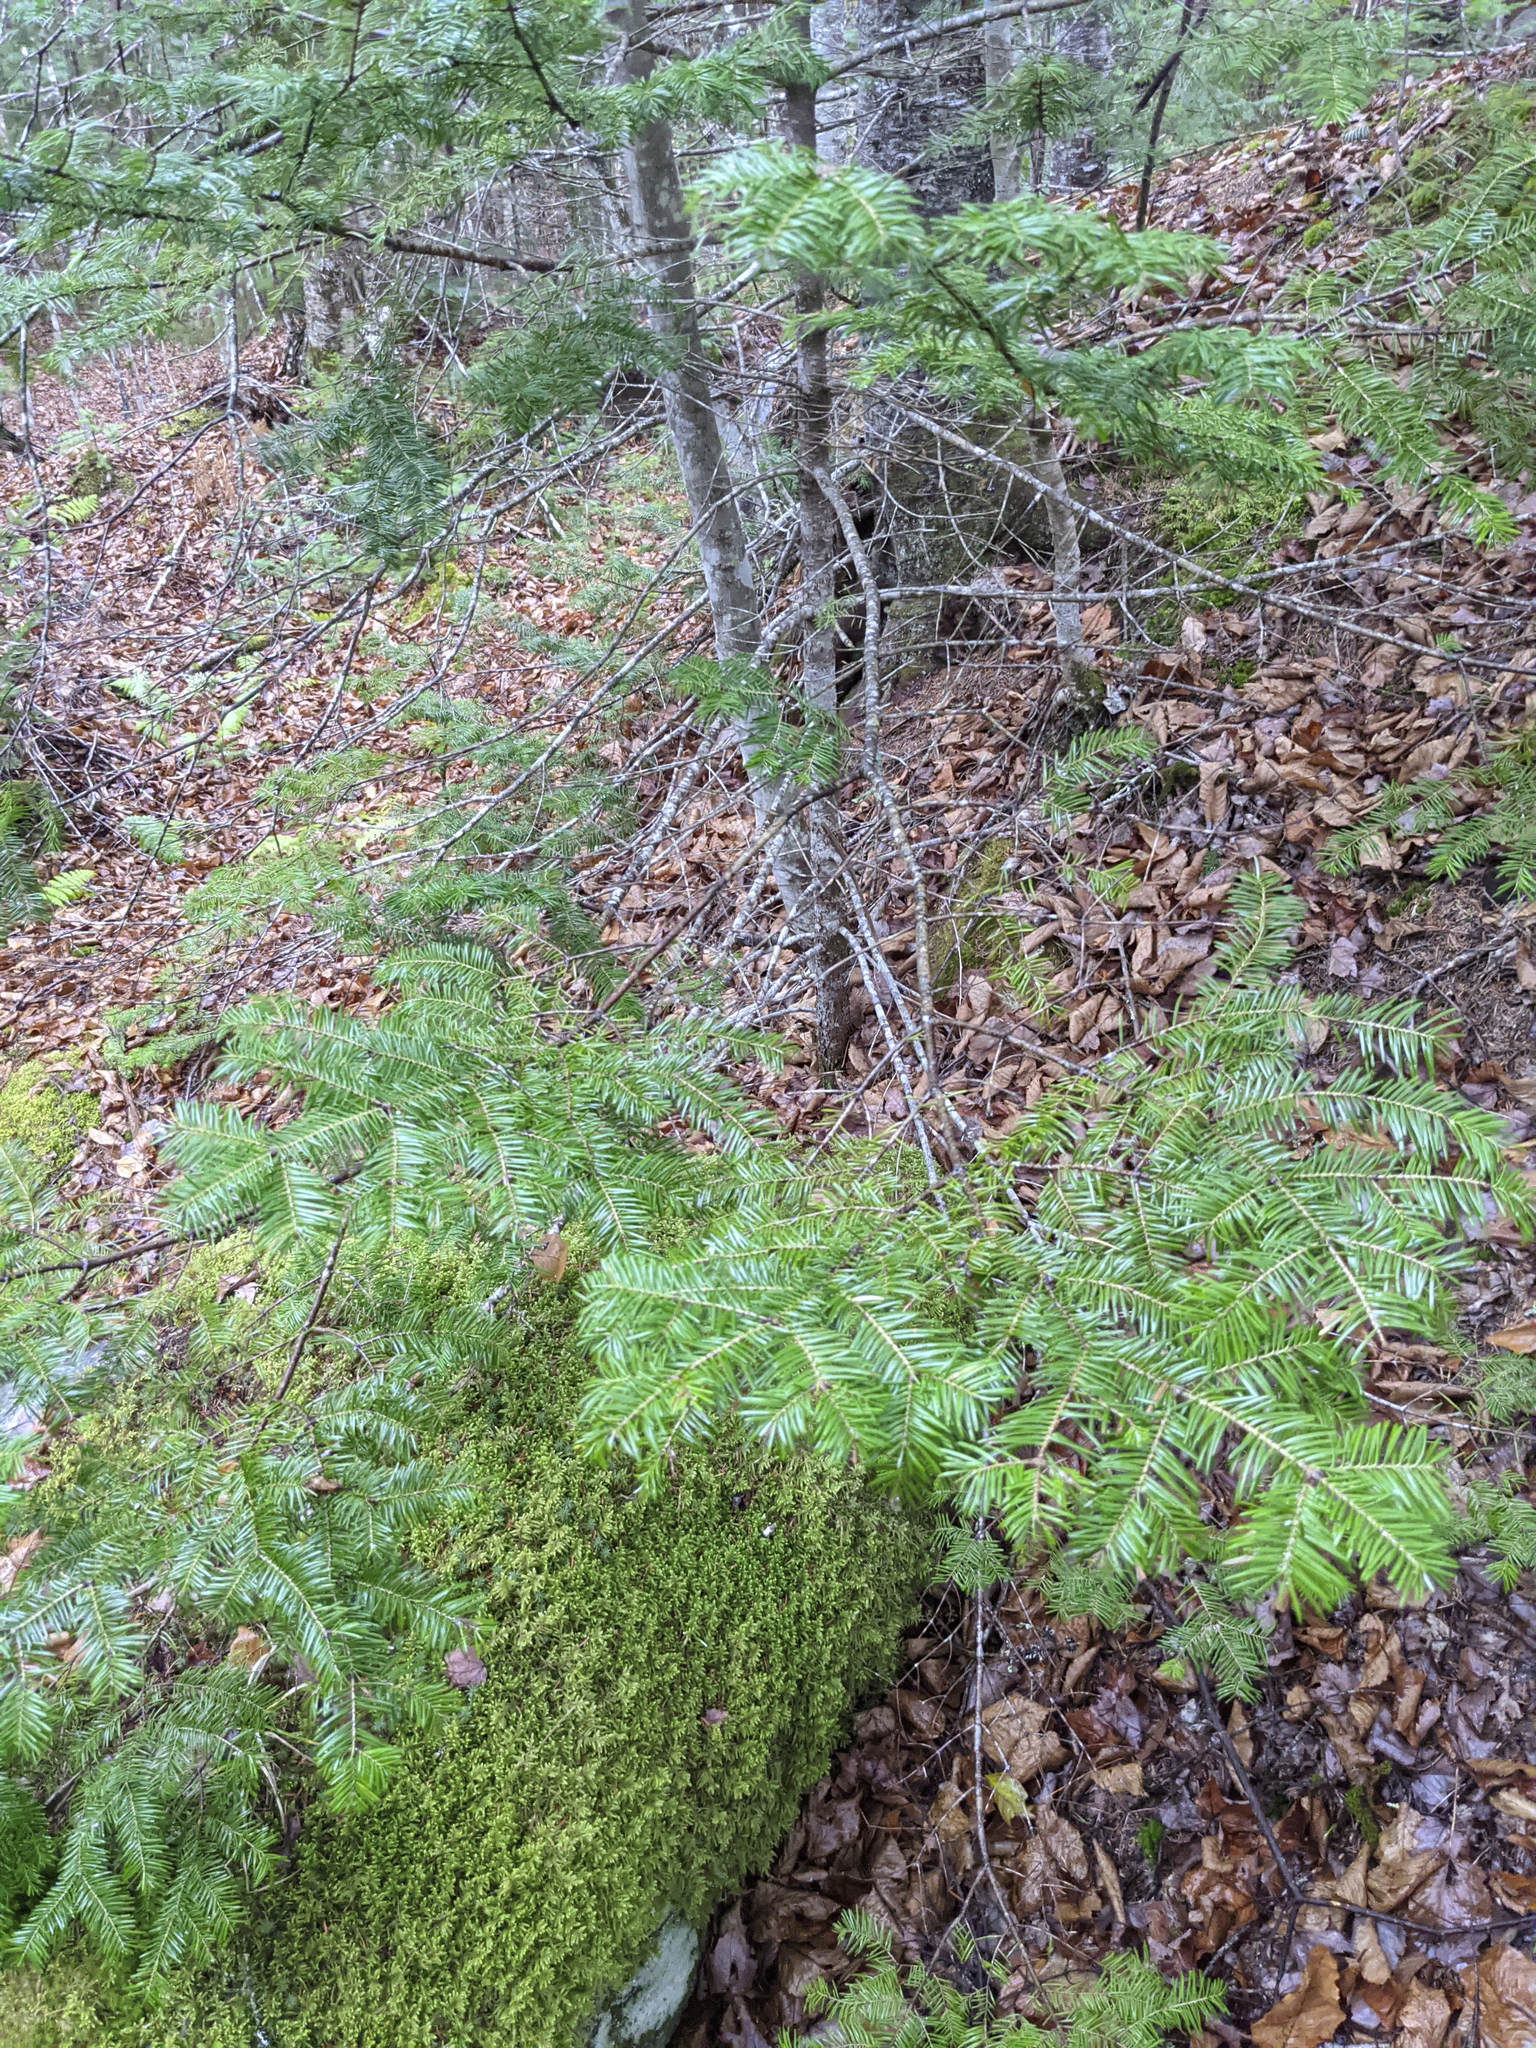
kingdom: Plantae
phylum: Tracheophyta
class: Pinopsida
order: Pinales
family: Pinaceae
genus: Abies
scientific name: Abies balsamea
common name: Balsam fir
